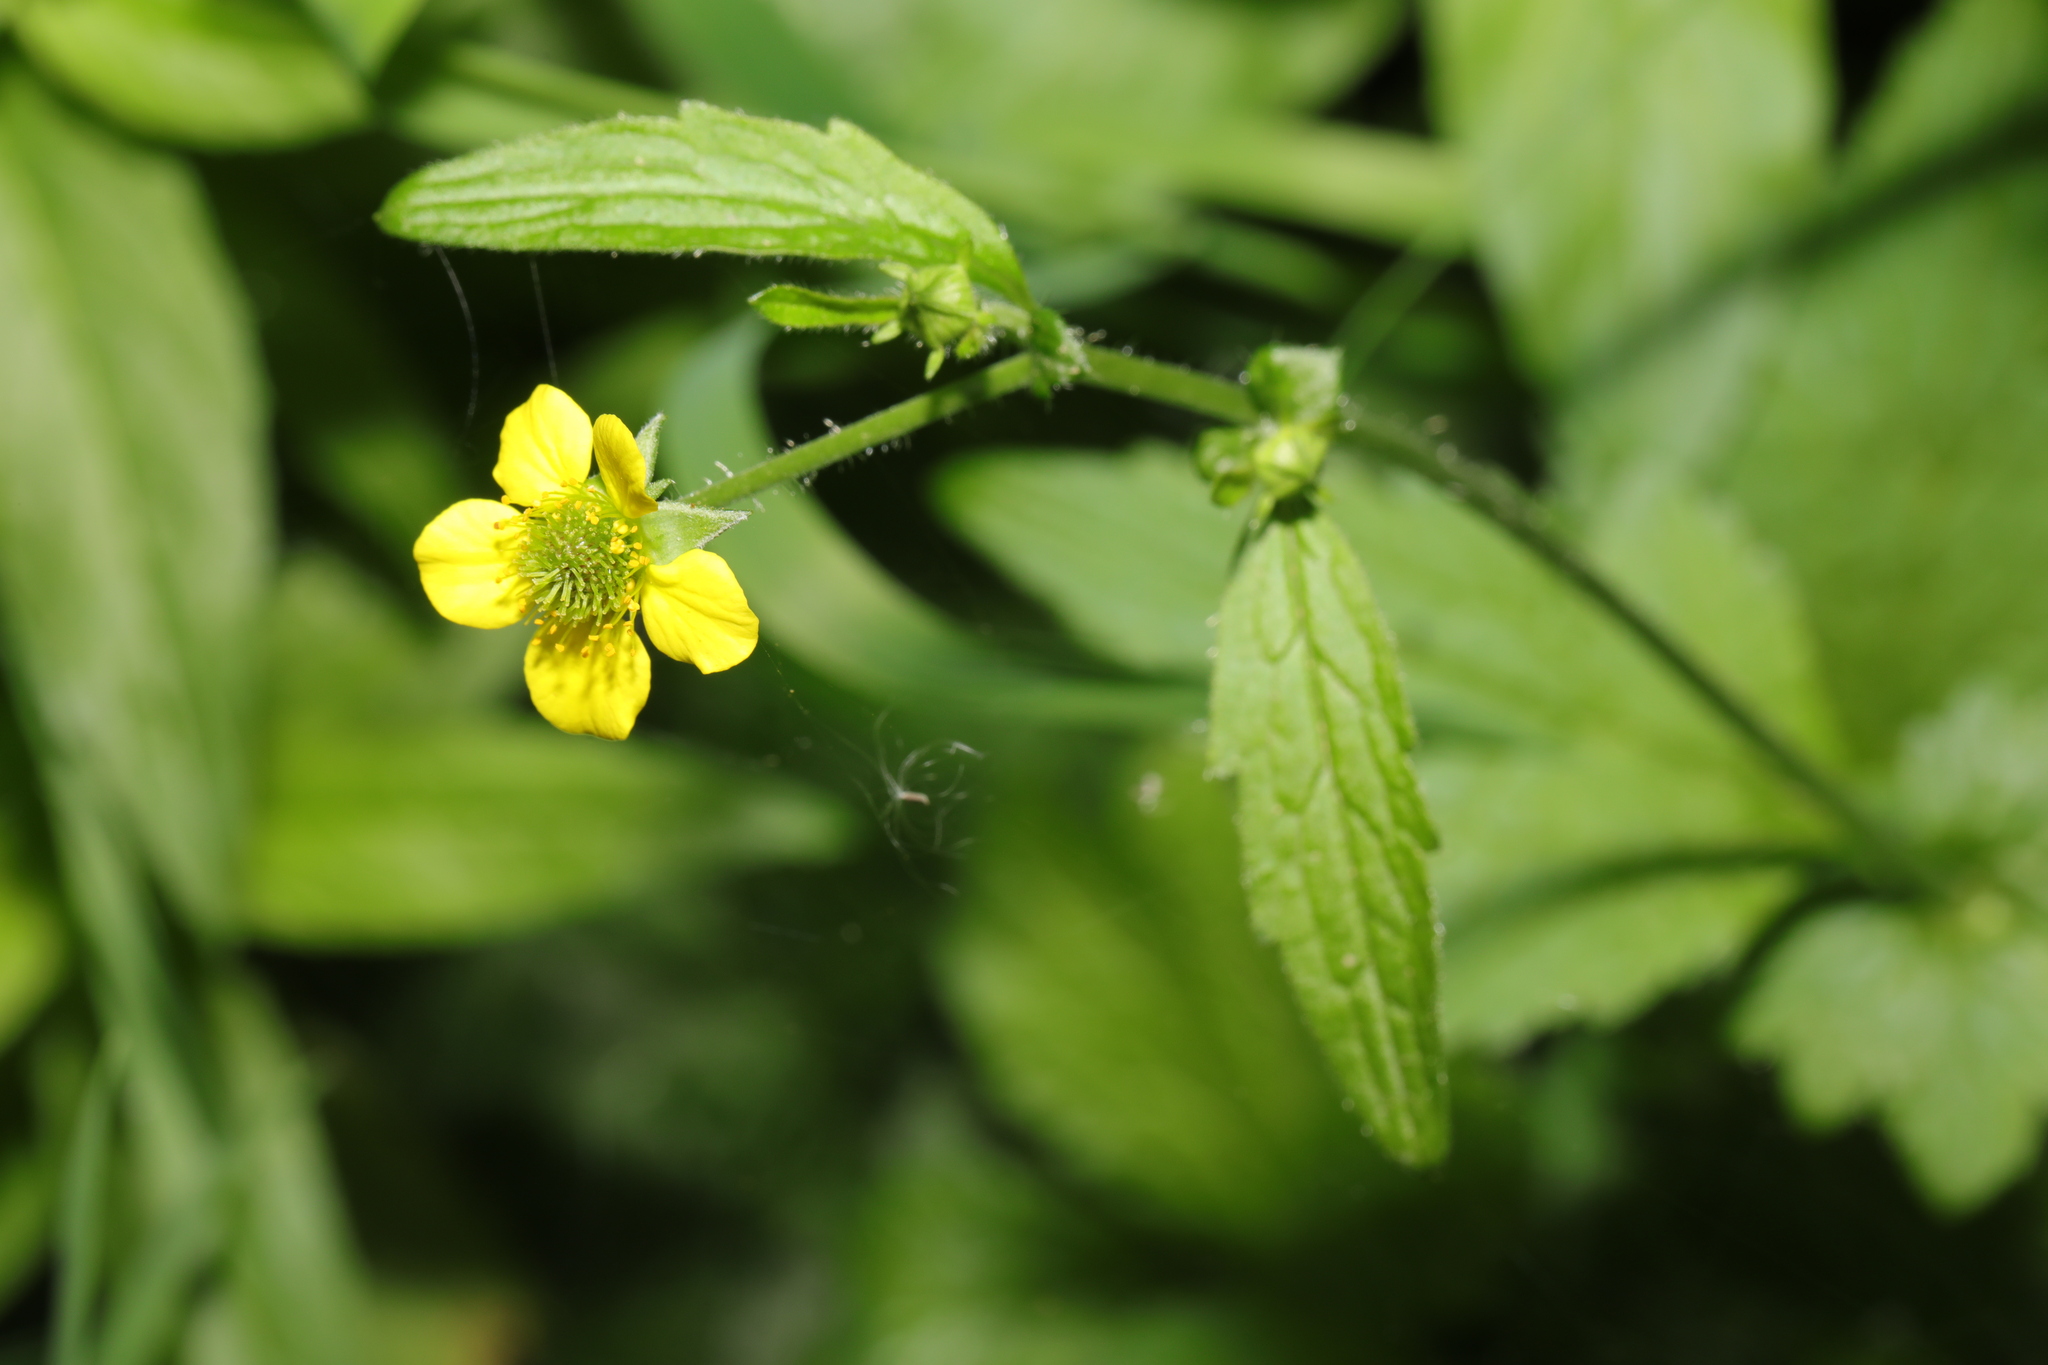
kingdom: Plantae
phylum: Tracheophyta
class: Magnoliopsida
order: Rosales
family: Rosaceae
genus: Geum
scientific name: Geum urbanum
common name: Wood avens
